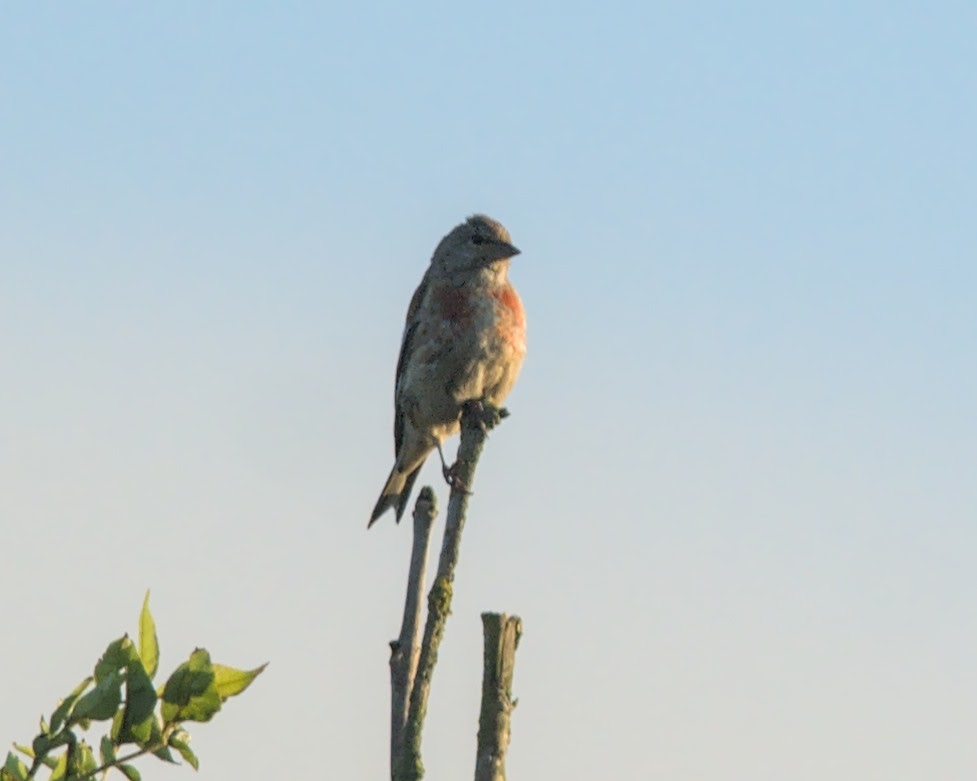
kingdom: Animalia
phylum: Chordata
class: Aves
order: Passeriformes
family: Fringillidae
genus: Linaria
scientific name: Linaria cannabina
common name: Common linnet
